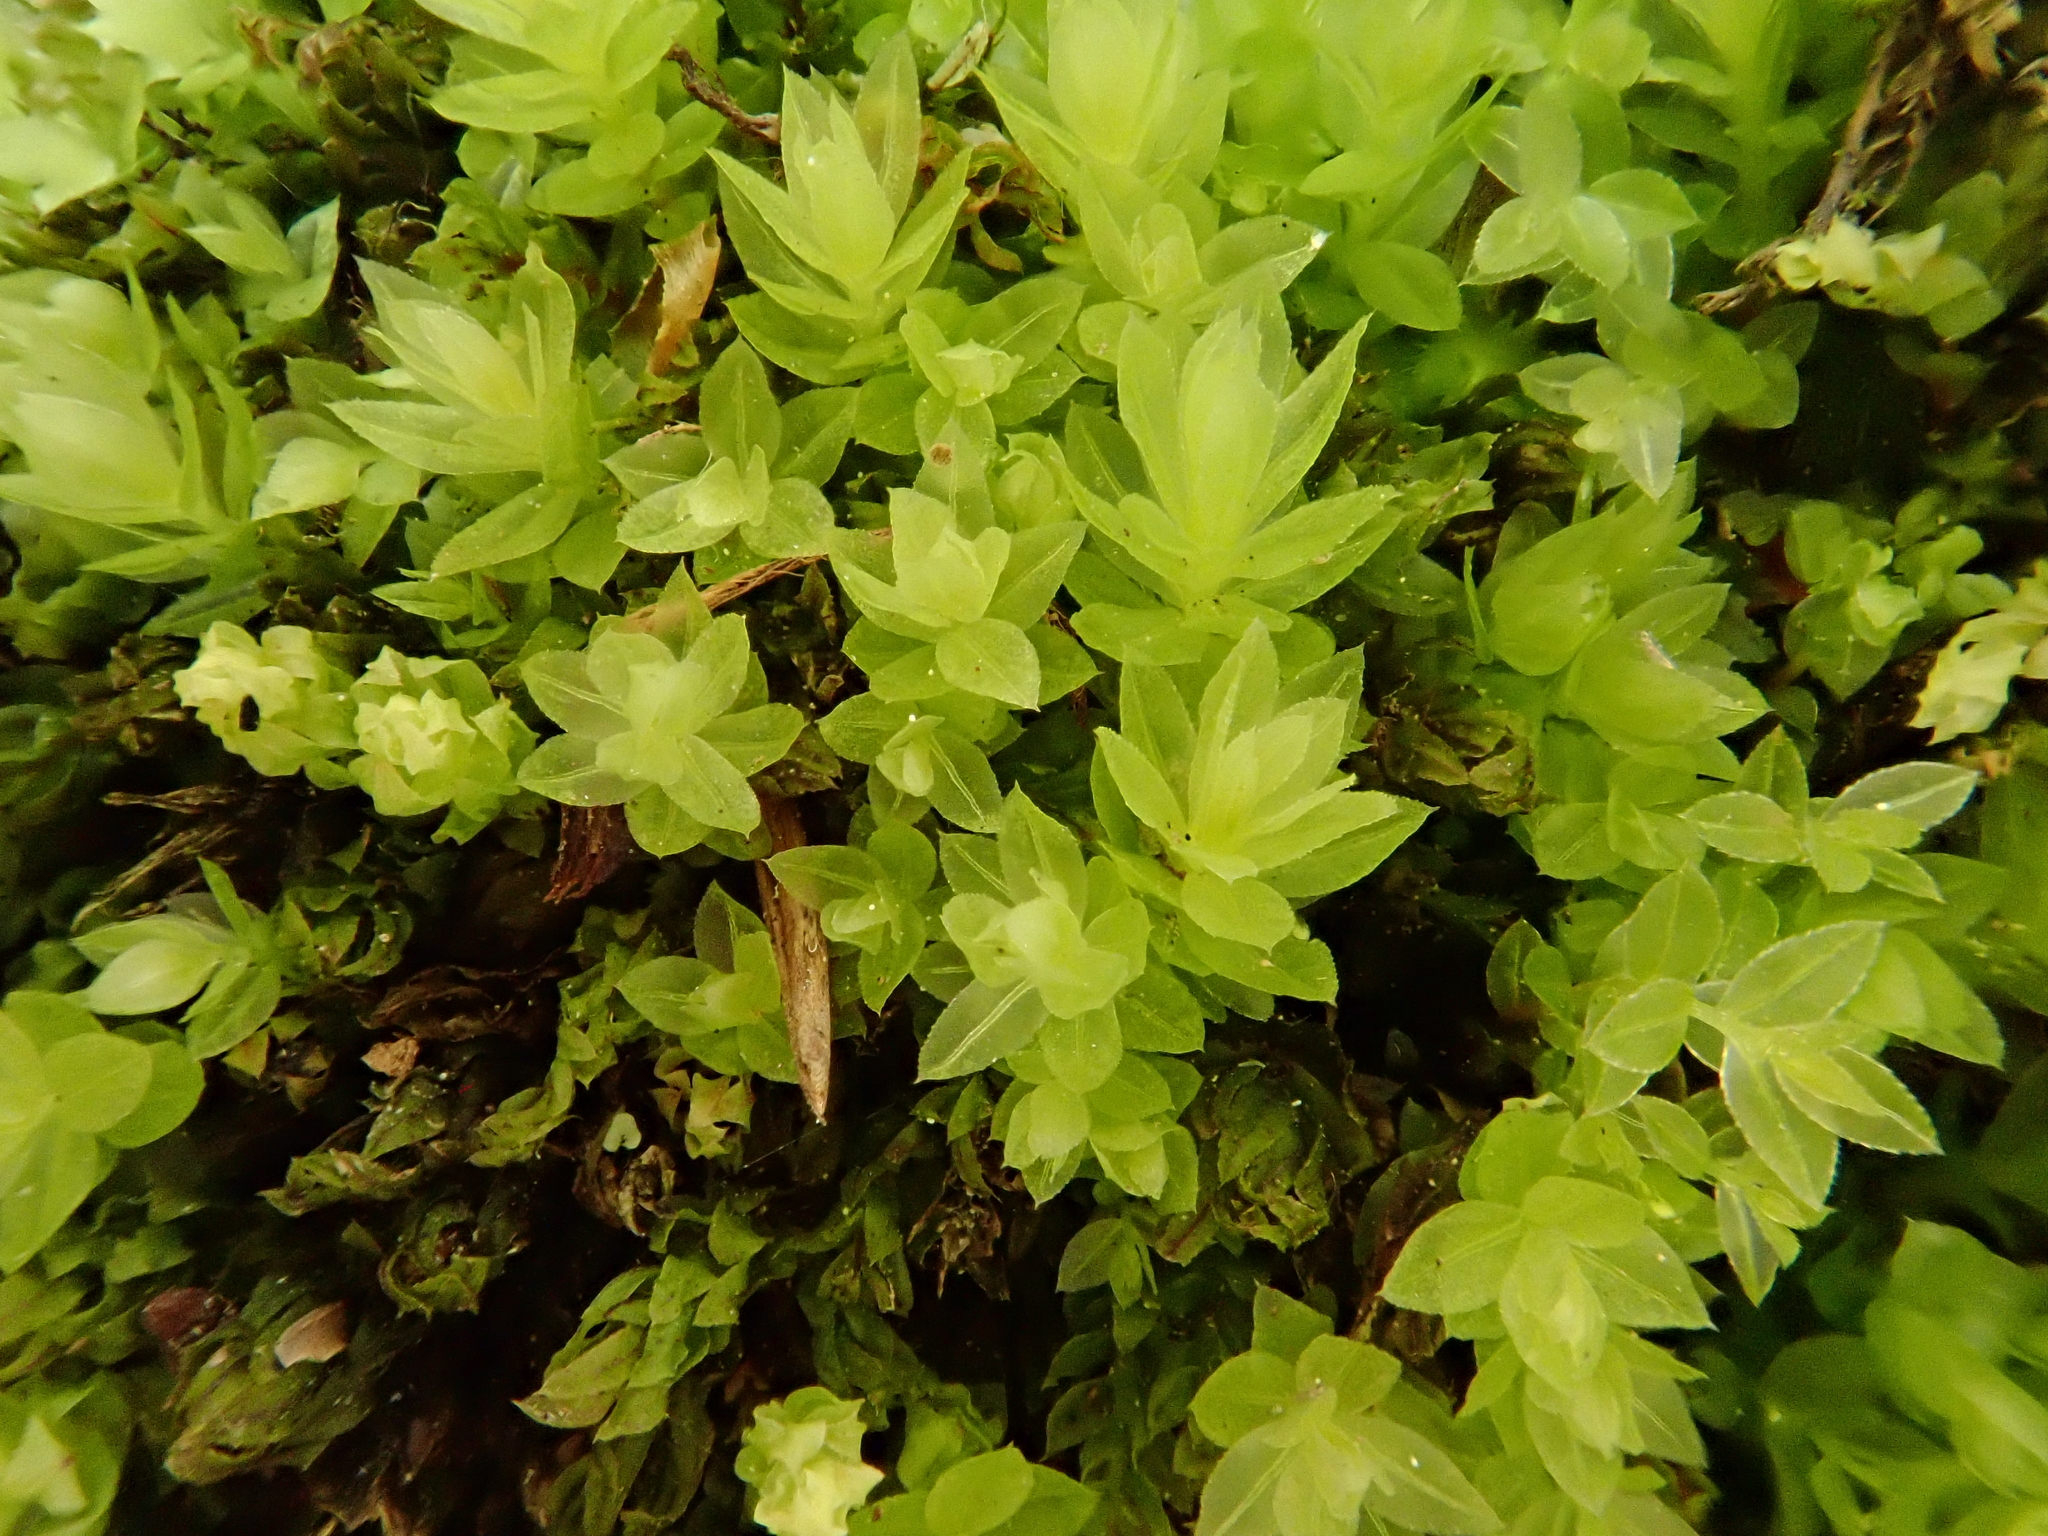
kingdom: Plantae
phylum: Bryophyta
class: Bryopsida
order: Bryales
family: Mniaceae
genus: Mnium
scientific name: Mnium stellare
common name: Star leafy moss
